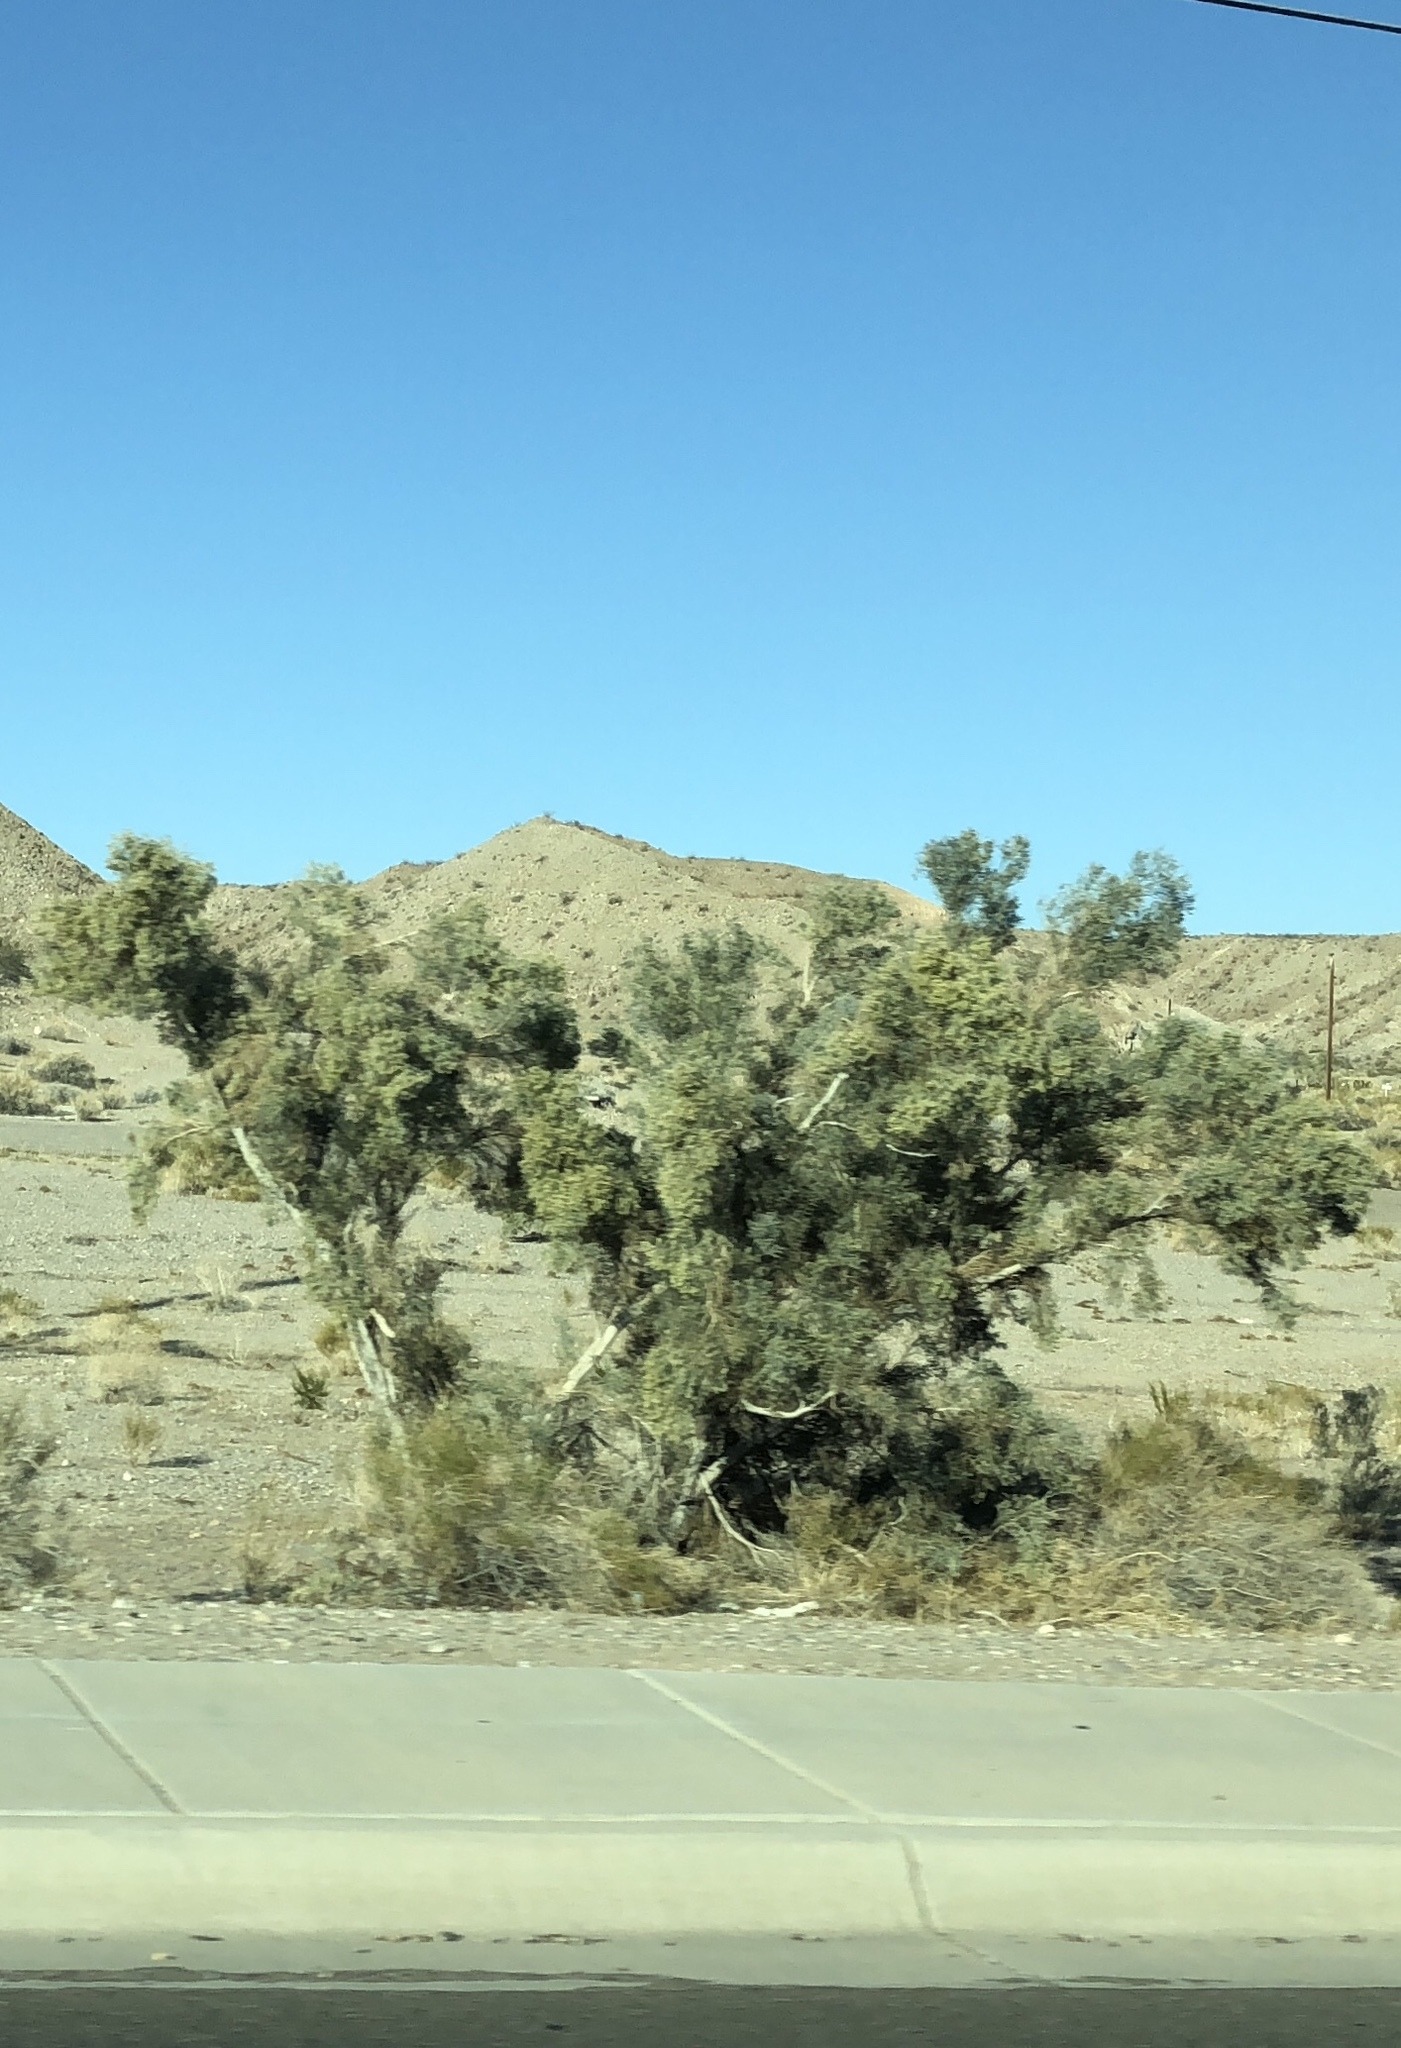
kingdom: Plantae
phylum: Tracheophyta
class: Magnoliopsida
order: Fabales
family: Fabaceae
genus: Psorothamnus
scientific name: Psorothamnus spinosus
